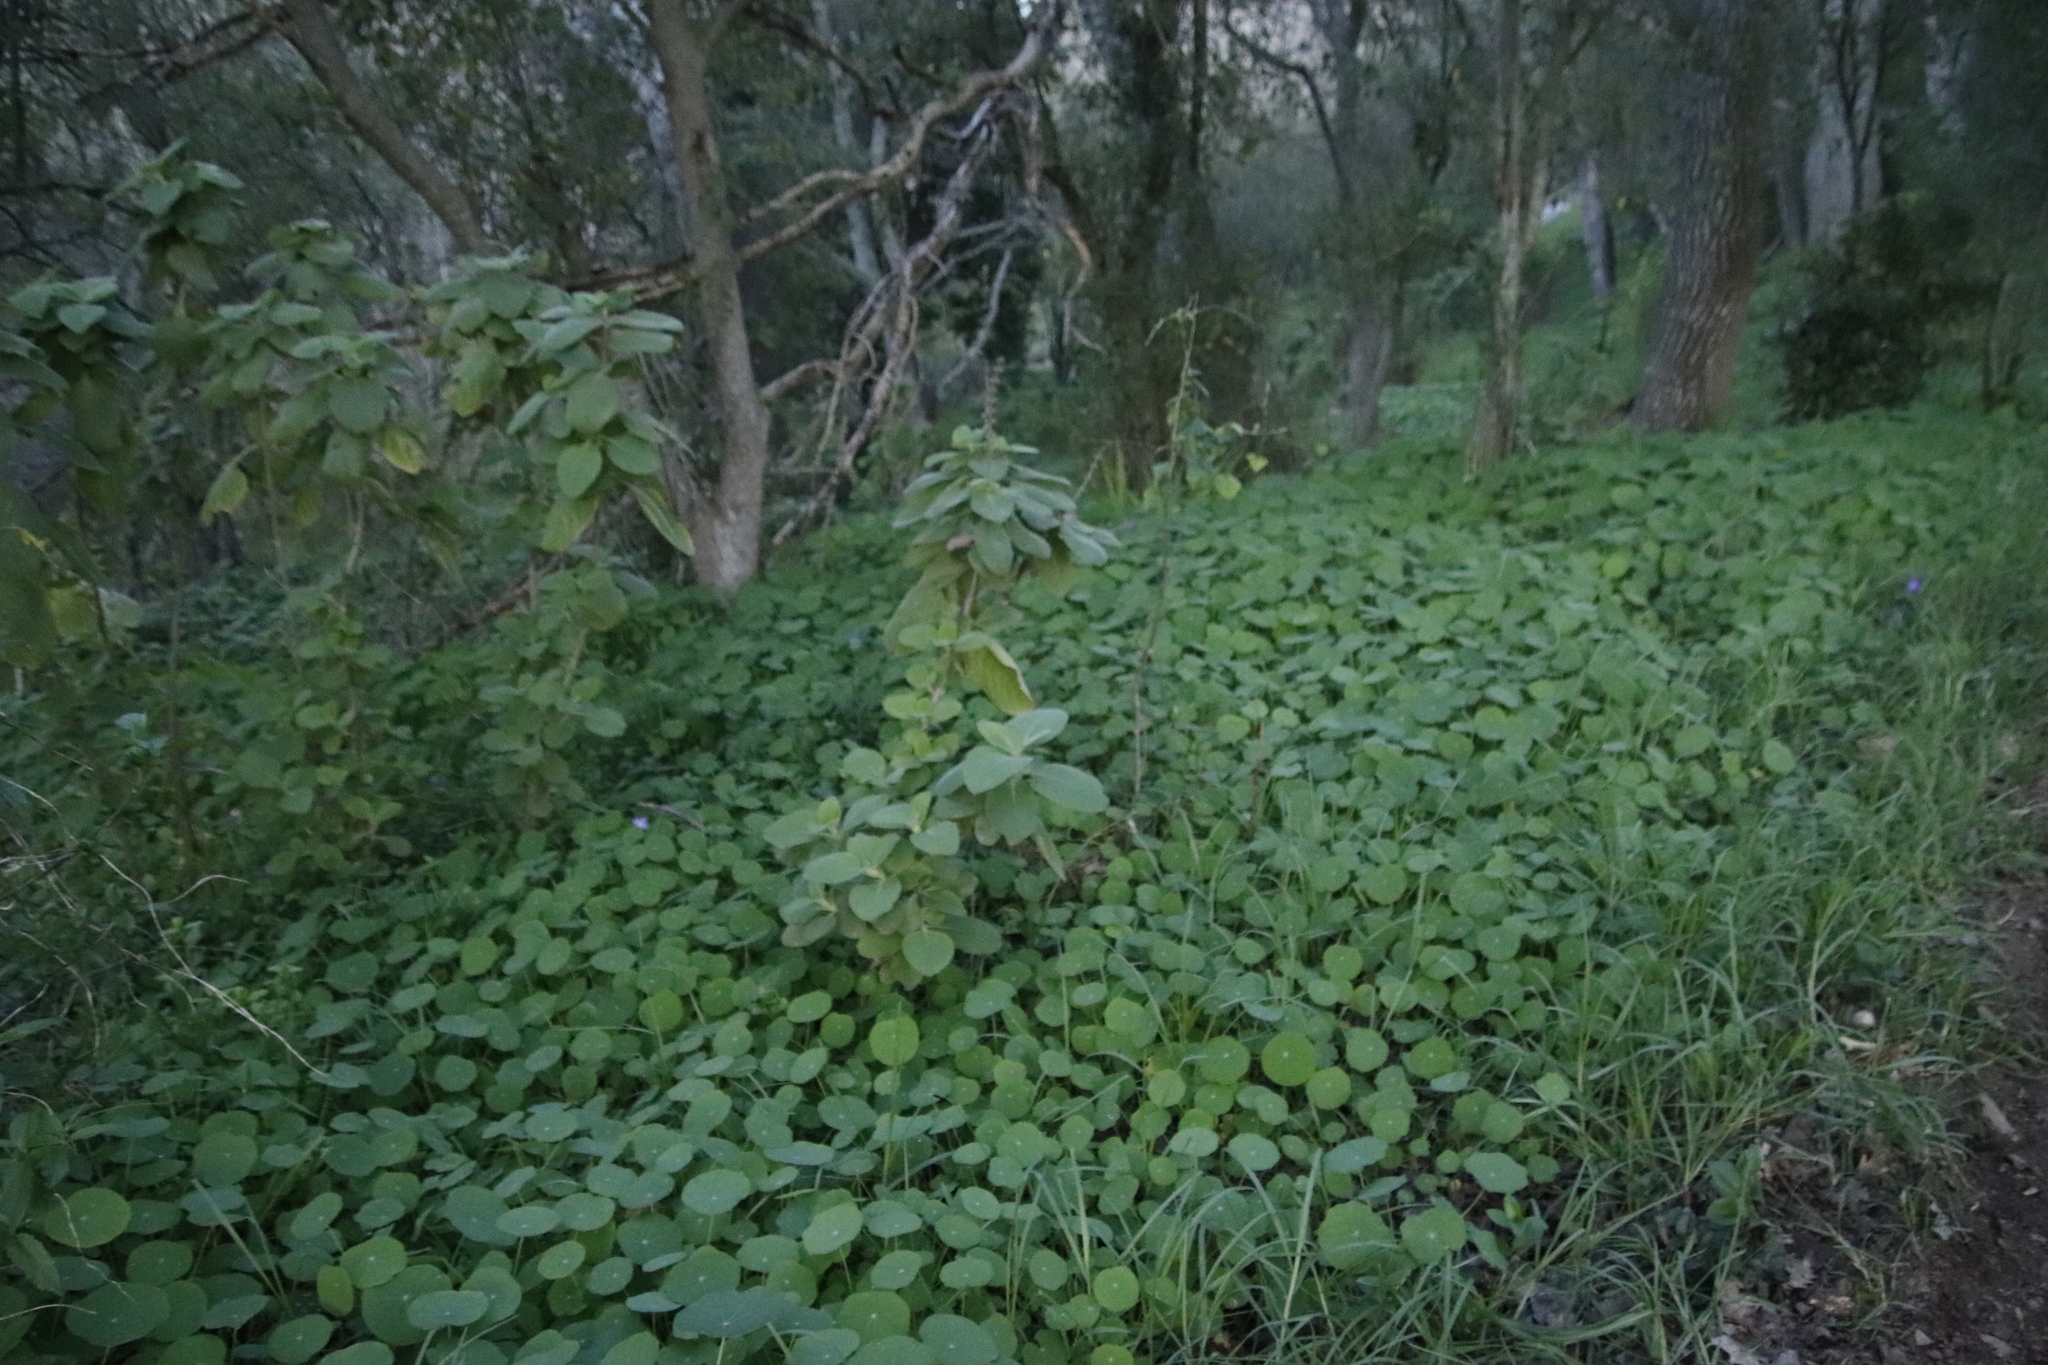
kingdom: Plantae
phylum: Tracheophyta
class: Magnoliopsida
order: Lamiales
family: Lamiaceae
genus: Coleus
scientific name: Coleus barbatus
